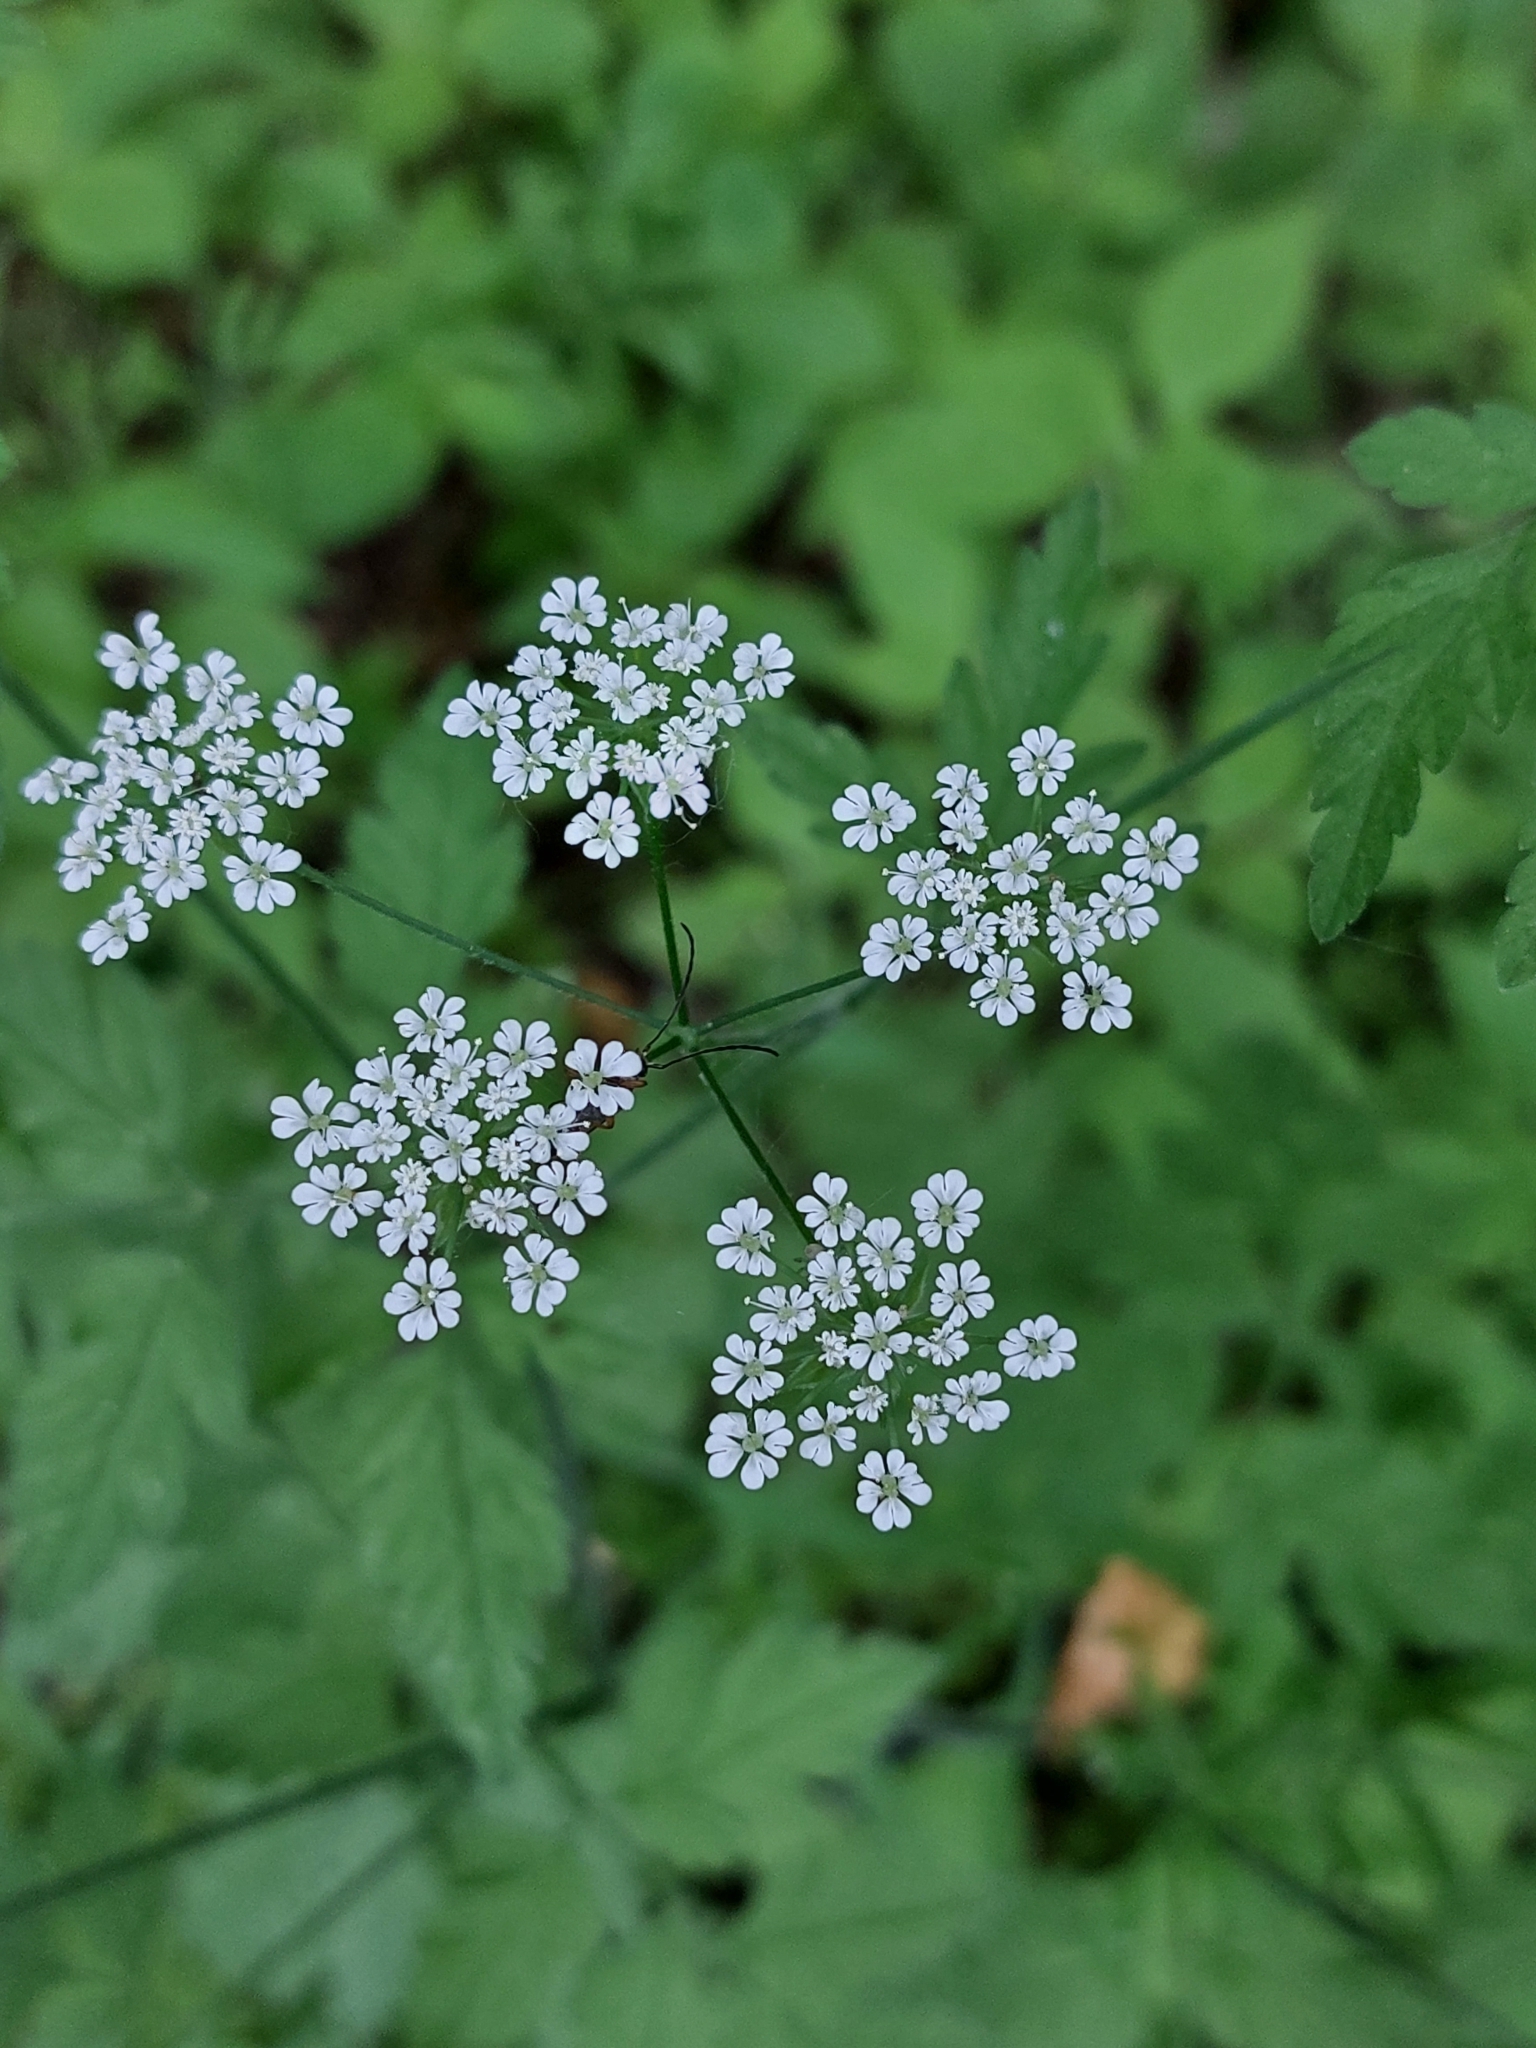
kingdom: Plantae
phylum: Tracheophyta
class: Magnoliopsida
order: Apiales
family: Apiaceae
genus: Chaerophyllum
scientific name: Chaerophyllum temulum
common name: Rough chervil
